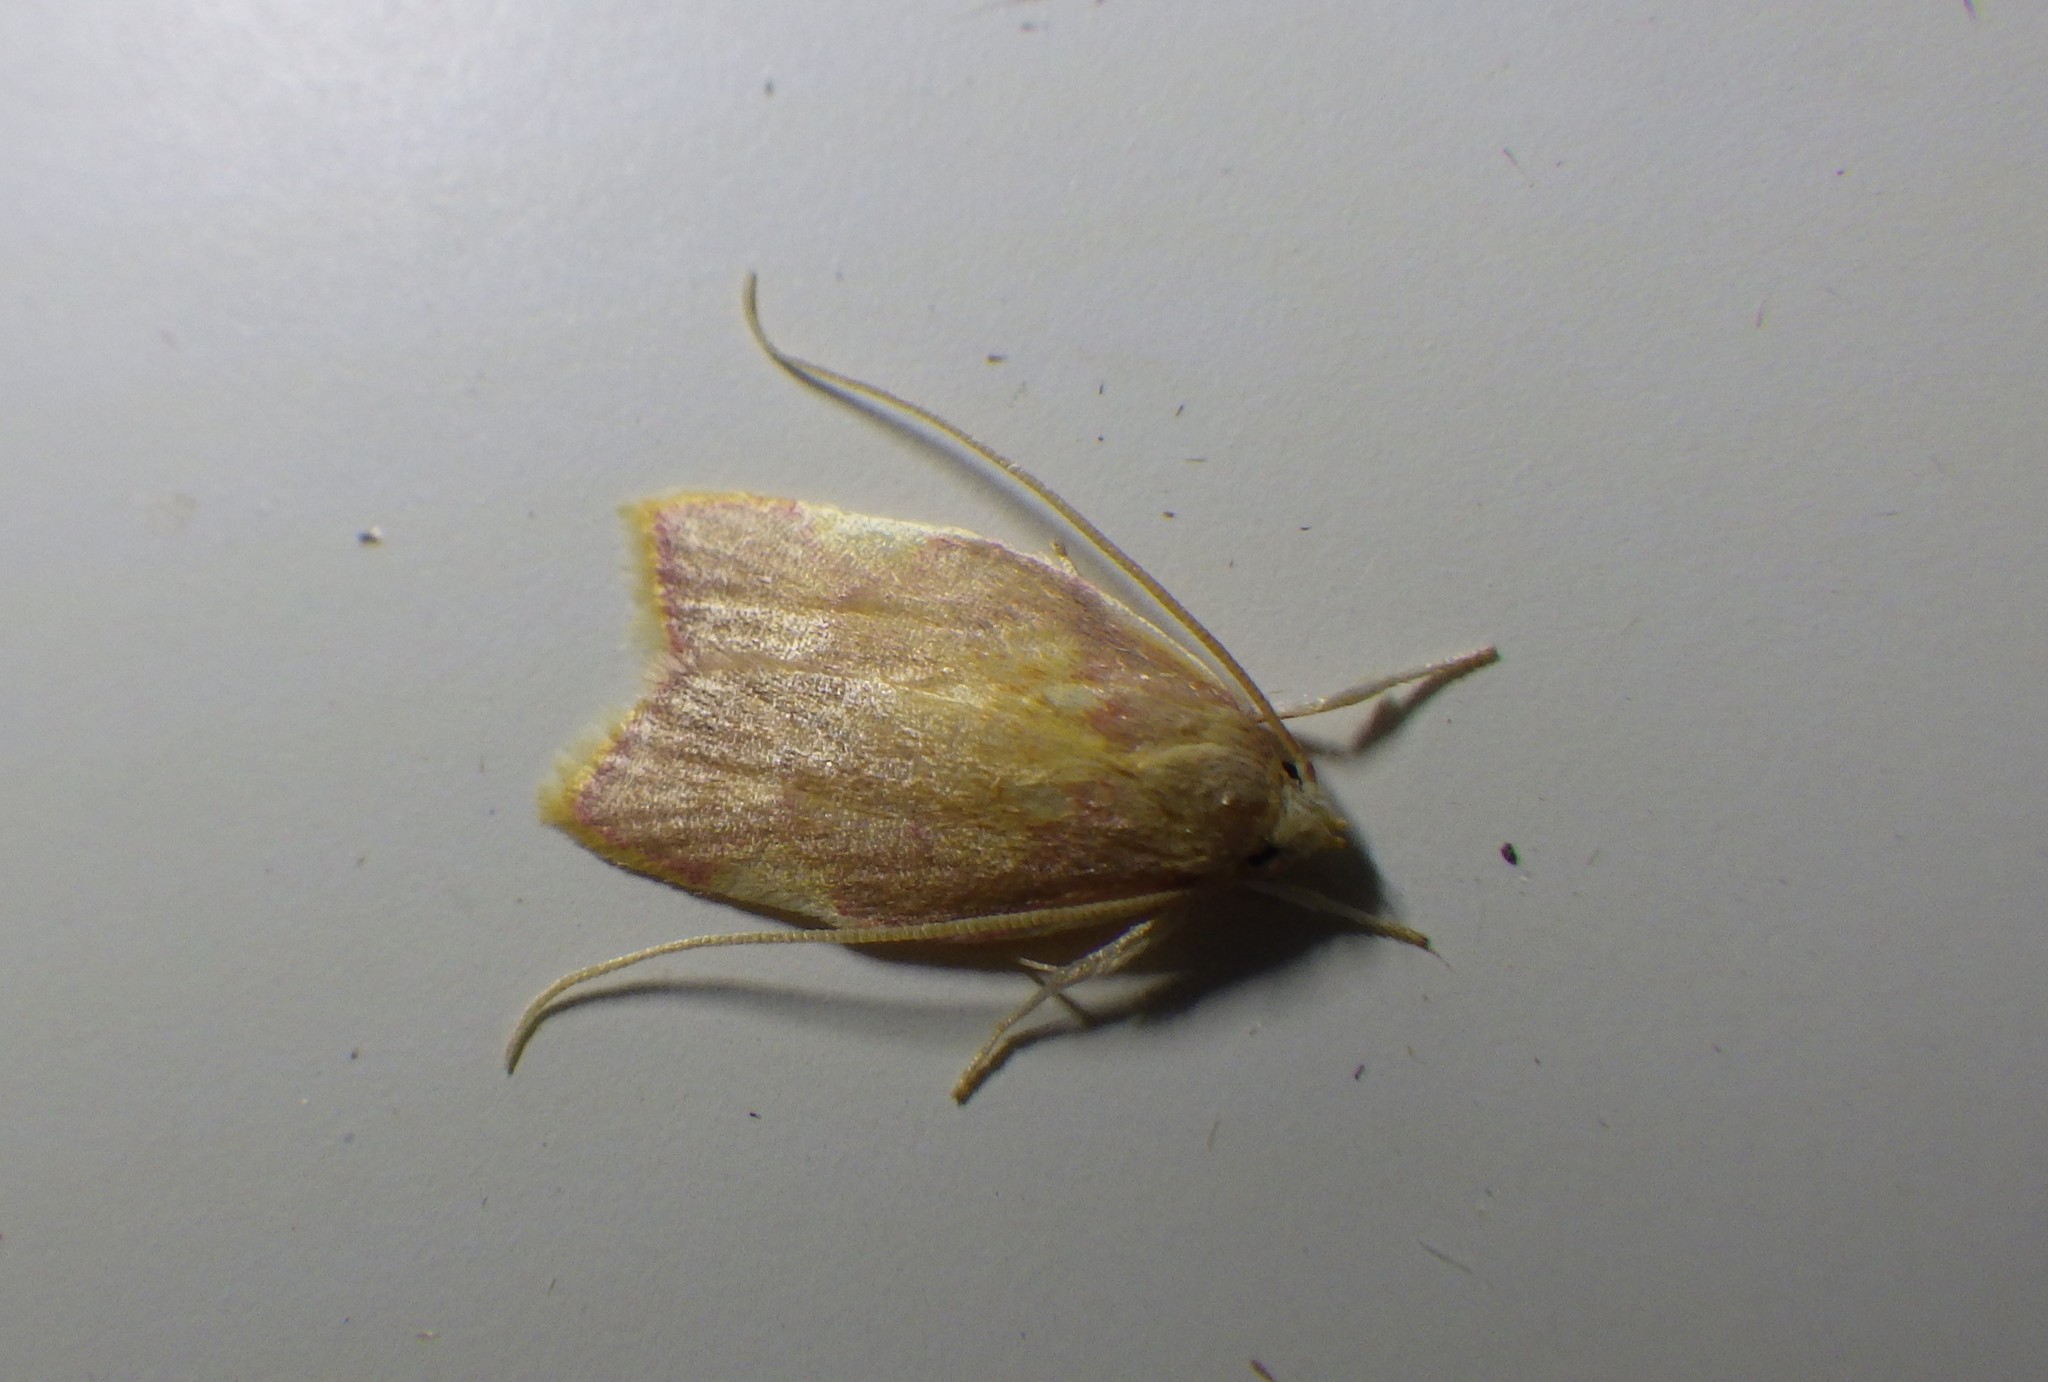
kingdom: Animalia
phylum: Arthropoda
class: Insecta
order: Lepidoptera
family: Peleopodidae
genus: Carcina
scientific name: Carcina quercana
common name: Moth
